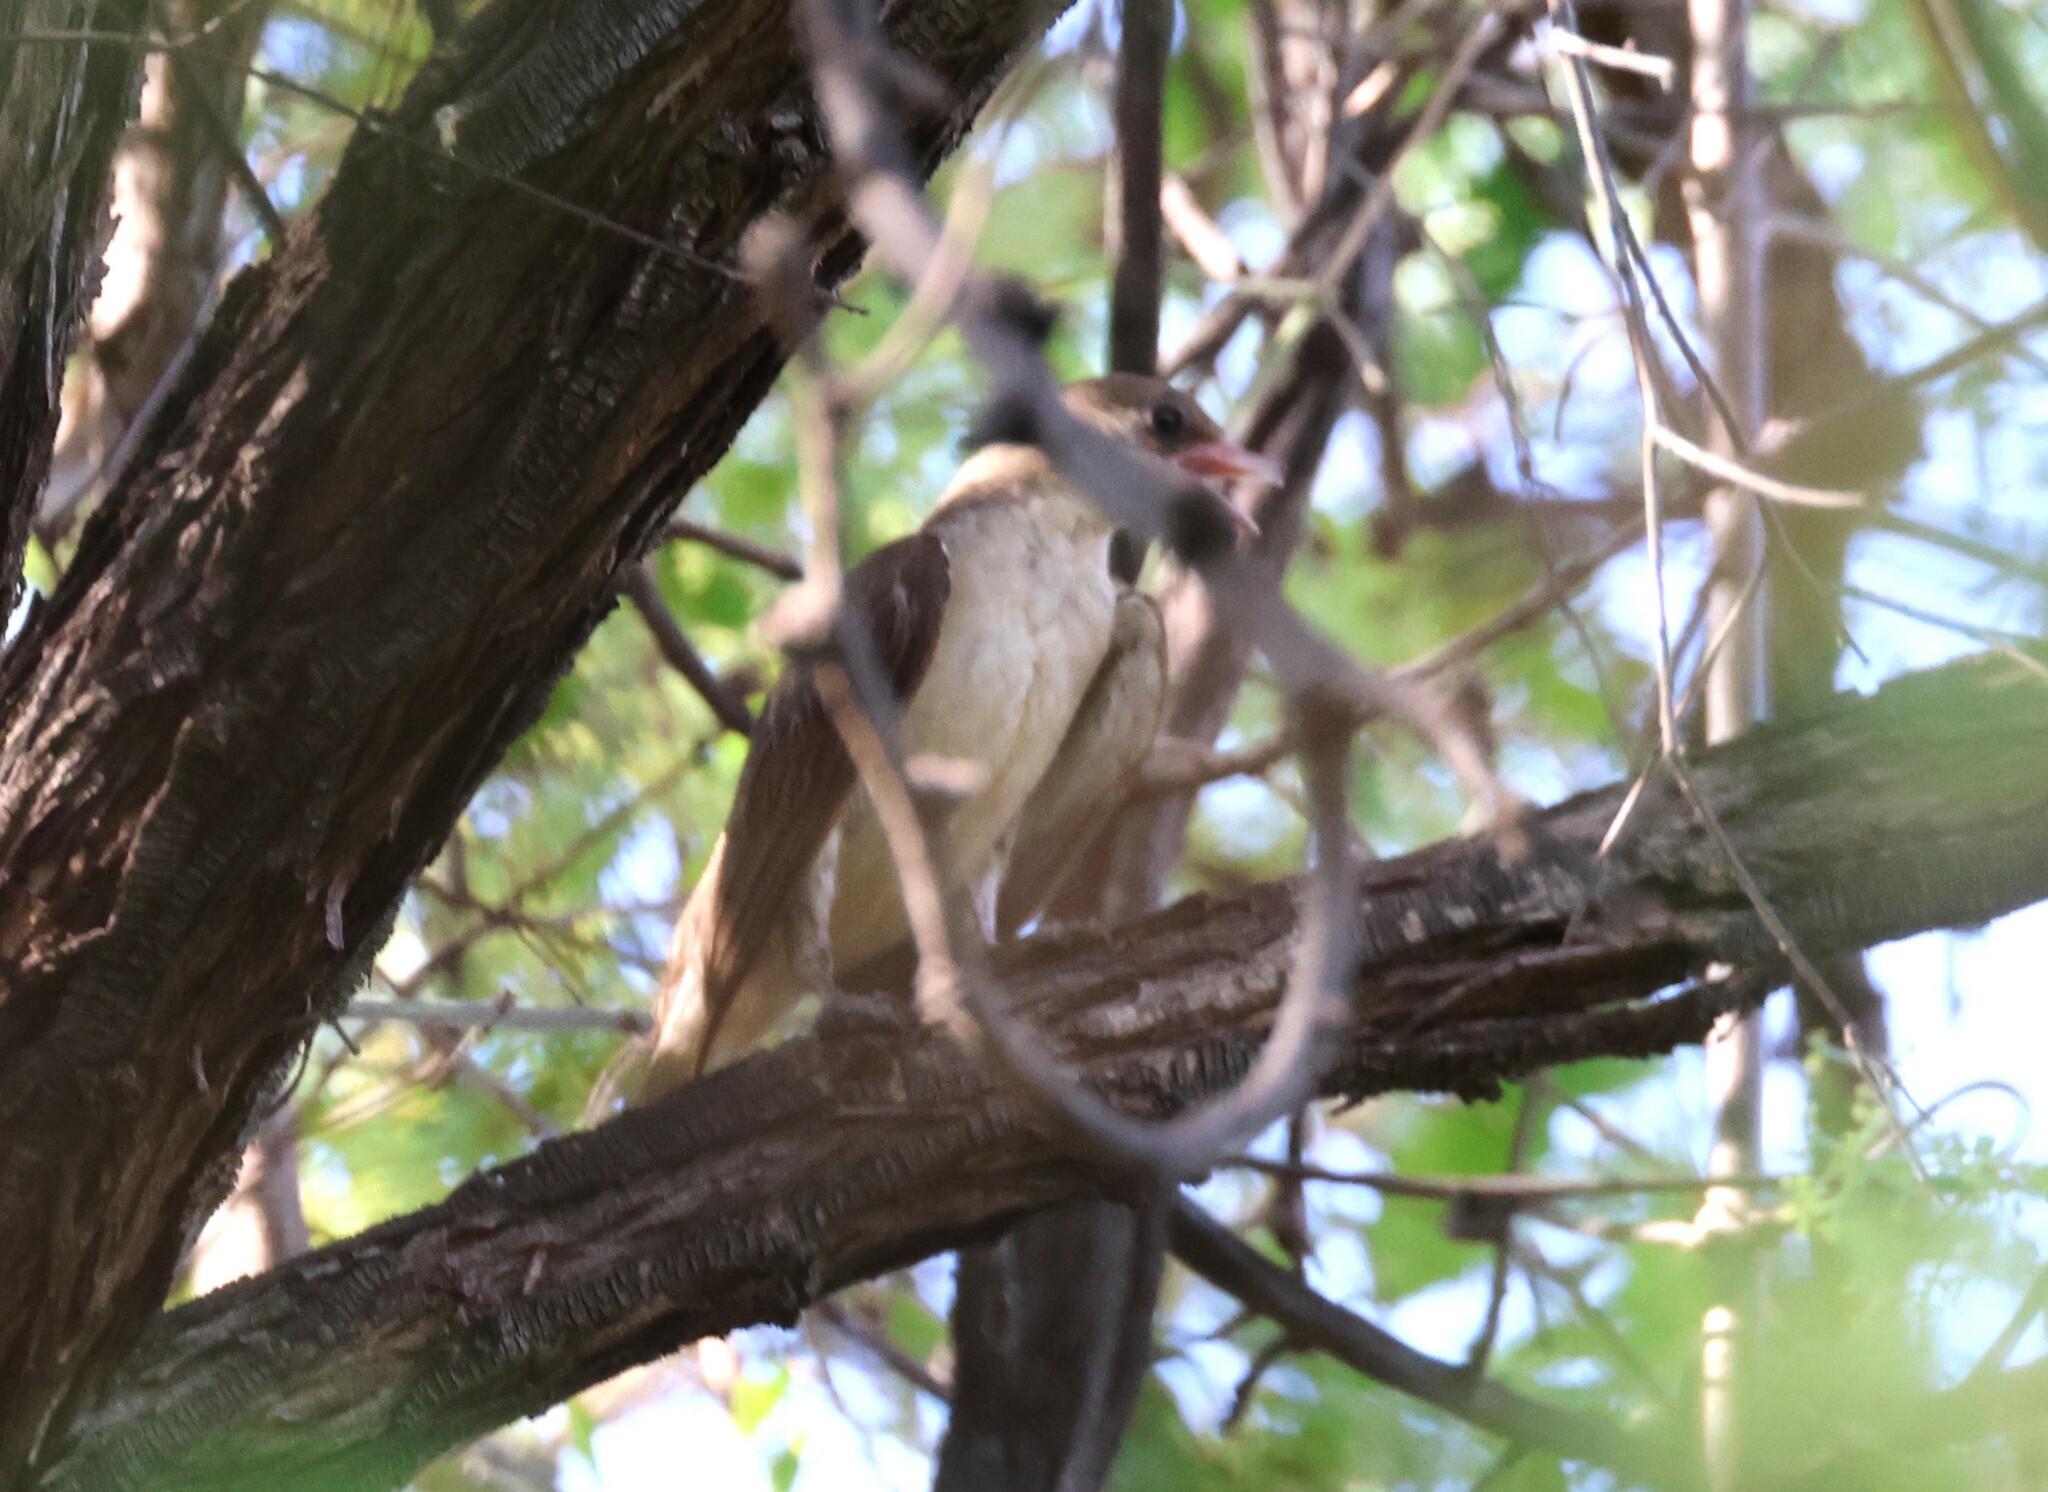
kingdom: Animalia
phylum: Chordata
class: Aves
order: Piciformes
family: Indicatoridae
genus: Indicator
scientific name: Indicator indicator
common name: Greater honeyguide
